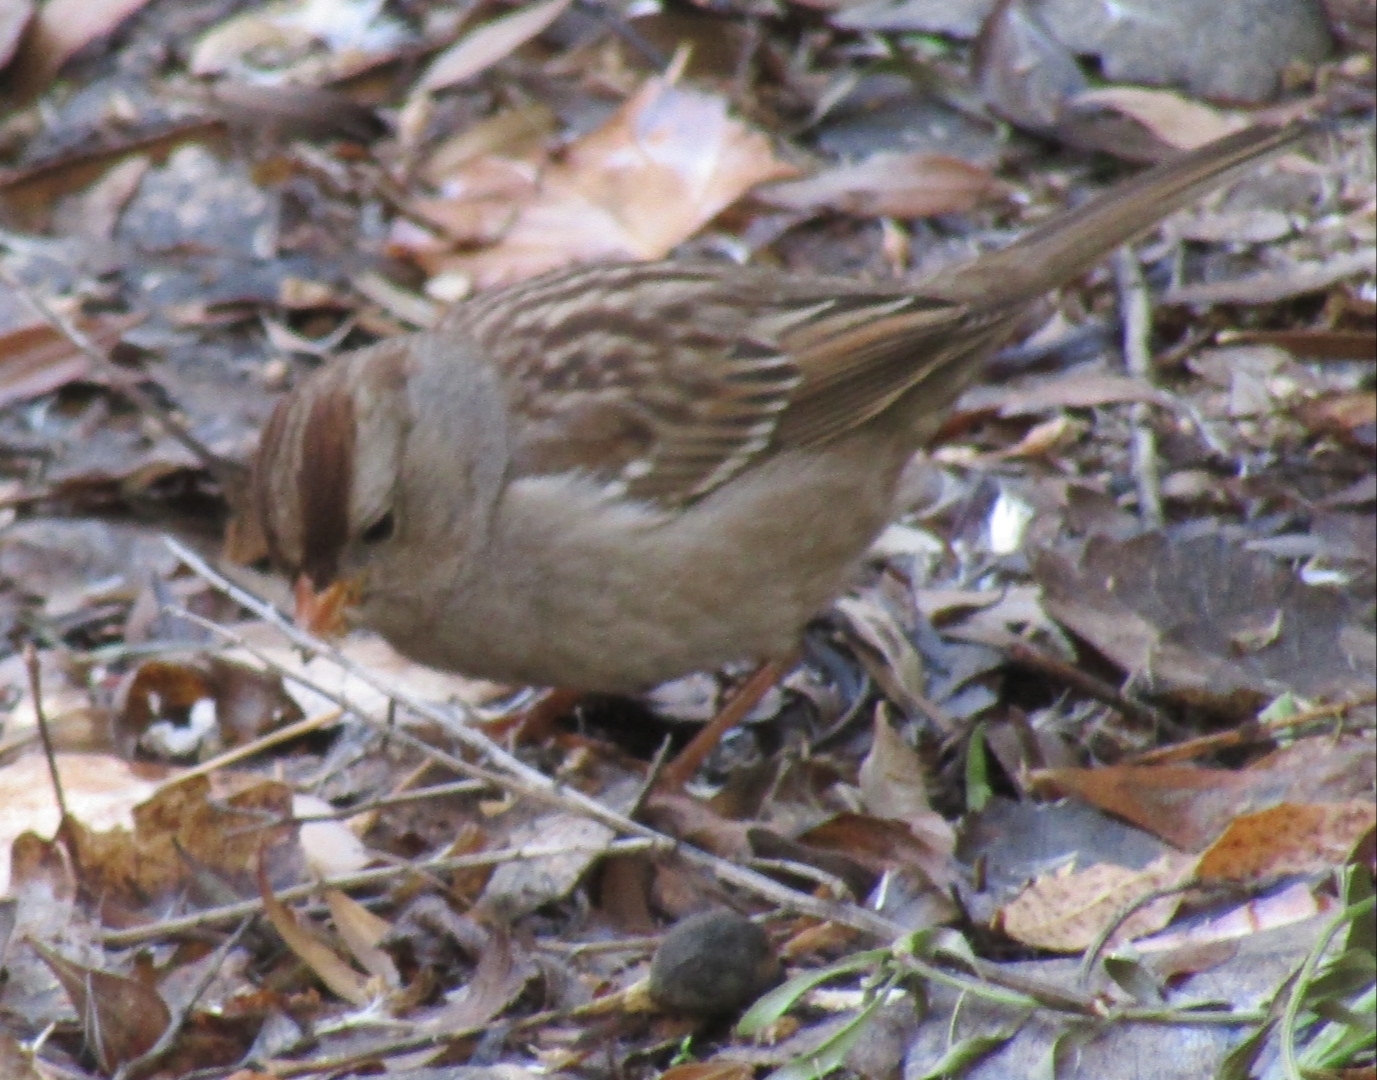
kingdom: Animalia
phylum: Chordata
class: Aves
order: Passeriformes
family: Passerellidae
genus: Zonotrichia
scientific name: Zonotrichia leucophrys
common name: White-crowned sparrow
